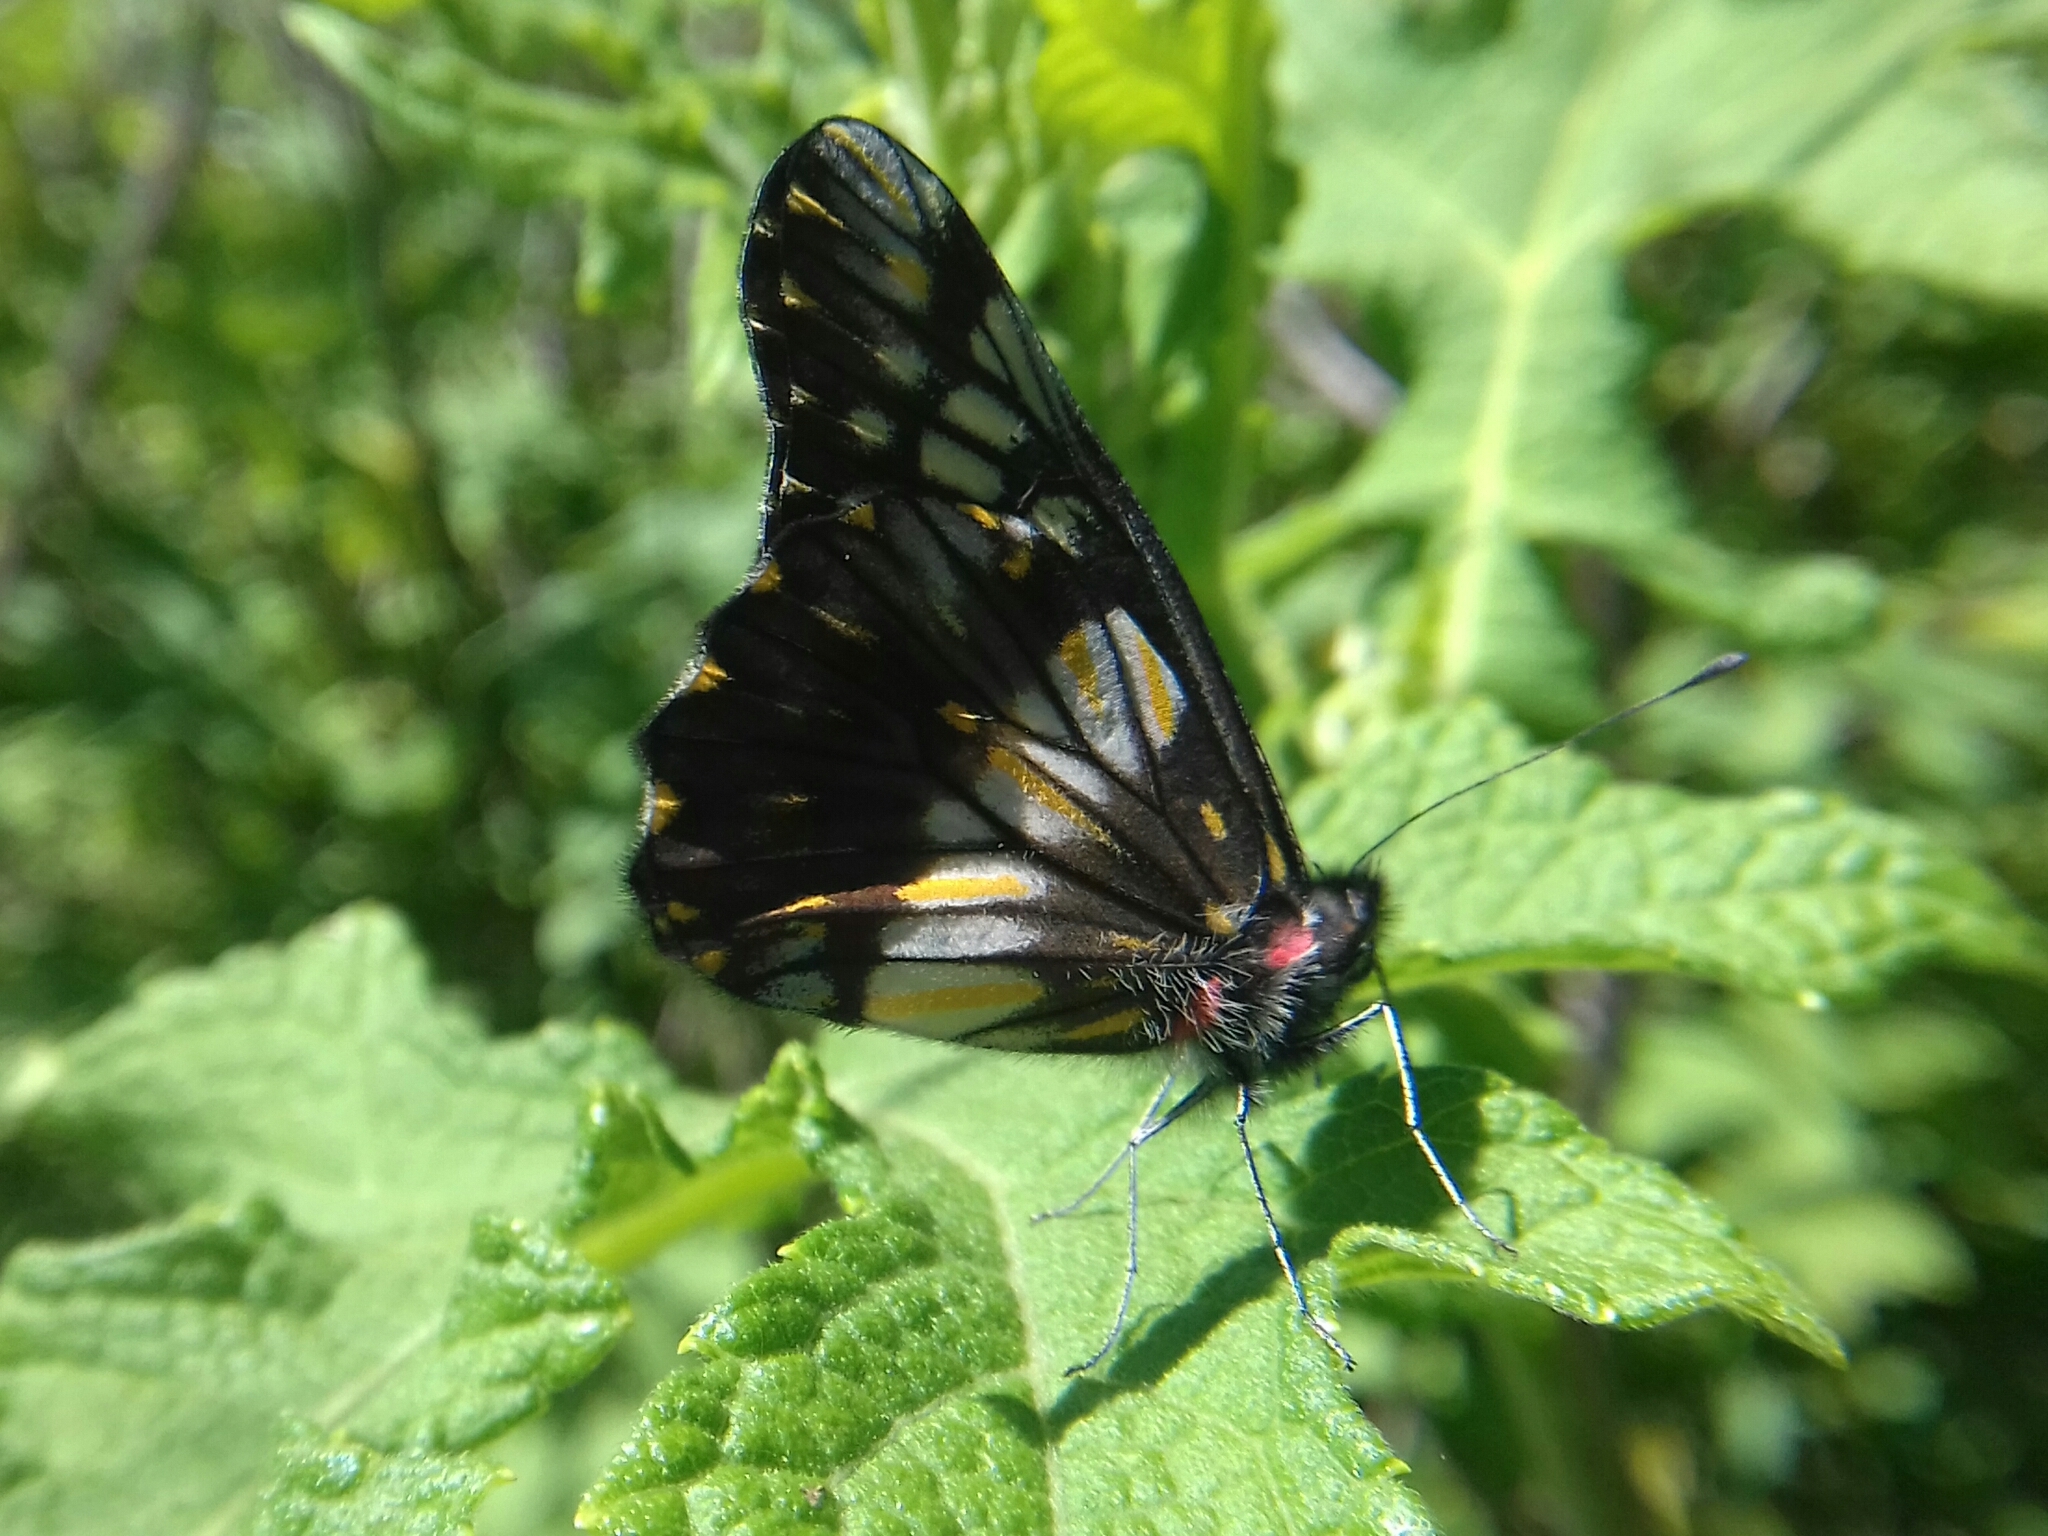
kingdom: Animalia
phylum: Arthropoda
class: Insecta
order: Lepidoptera
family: Pieridae
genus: Archonias
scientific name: Archonias nimbice
